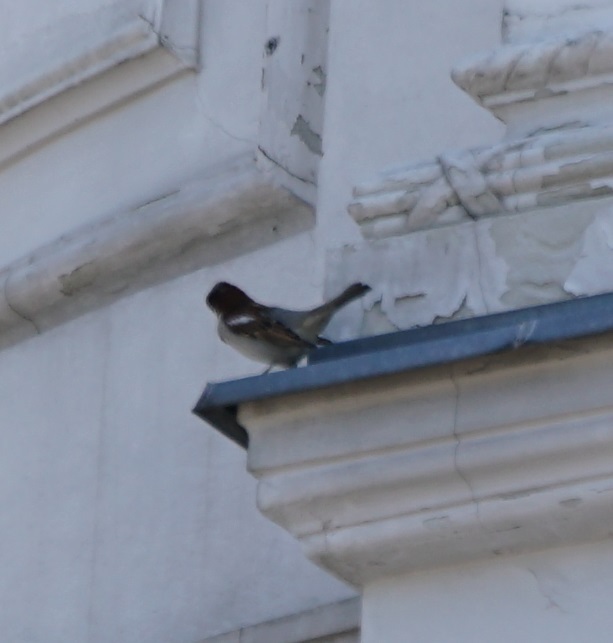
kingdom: Animalia
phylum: Chordata
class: Aves
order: Passeriformes
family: Passeridae
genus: Passer
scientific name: Passer domesticus
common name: House sparrow
